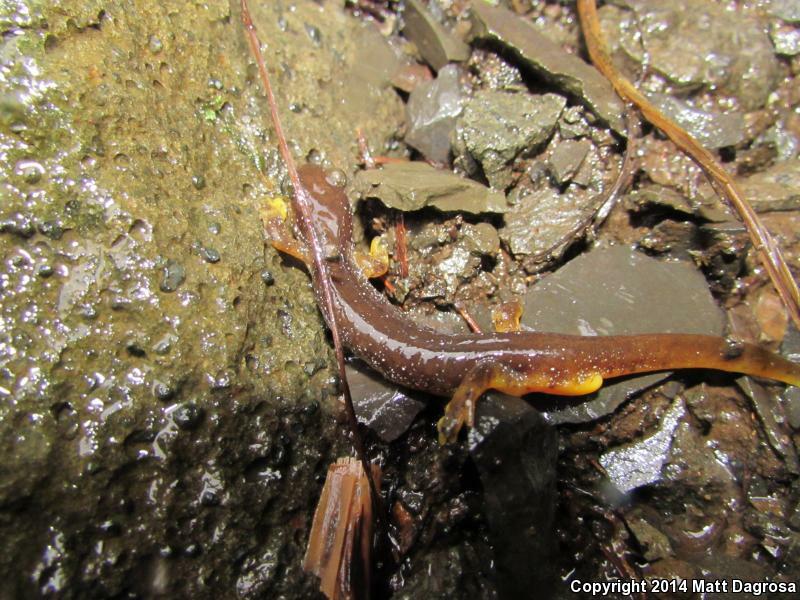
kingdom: Animalia
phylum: Chordata
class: Amphibia
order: Caudata
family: Rhyacotritonidae
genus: Rhyacotriton
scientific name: Rhyacotriton kezeri
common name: Columbia torrent salamander
